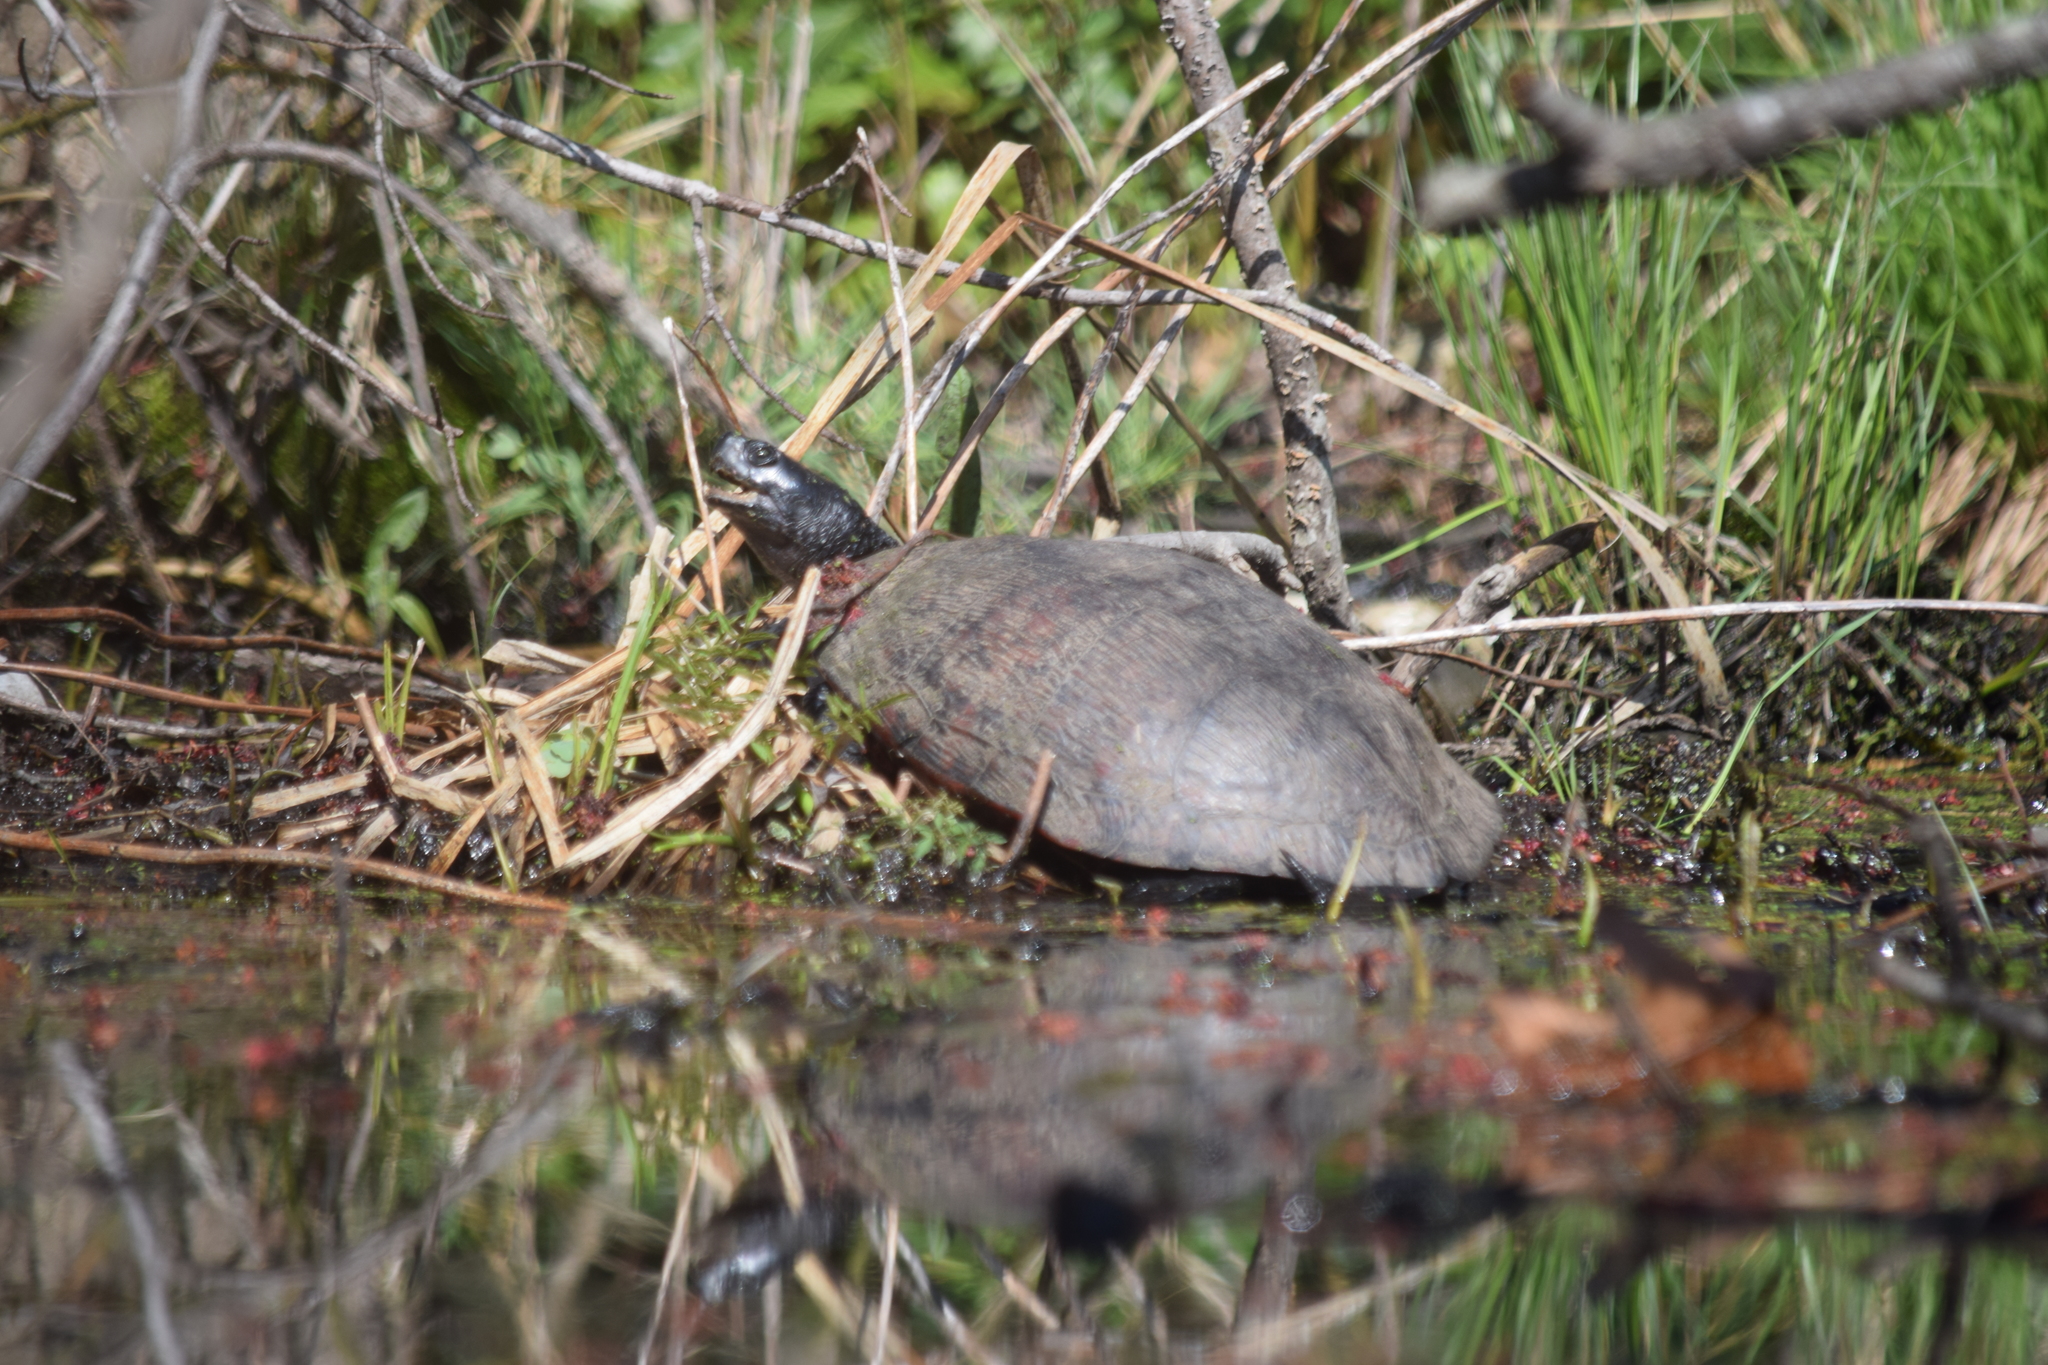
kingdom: Animalia
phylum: Chordata
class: Testudines
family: Emydidae
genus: Pseudemys
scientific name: Pseudemys rubriventris
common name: American red-bellied turtle
